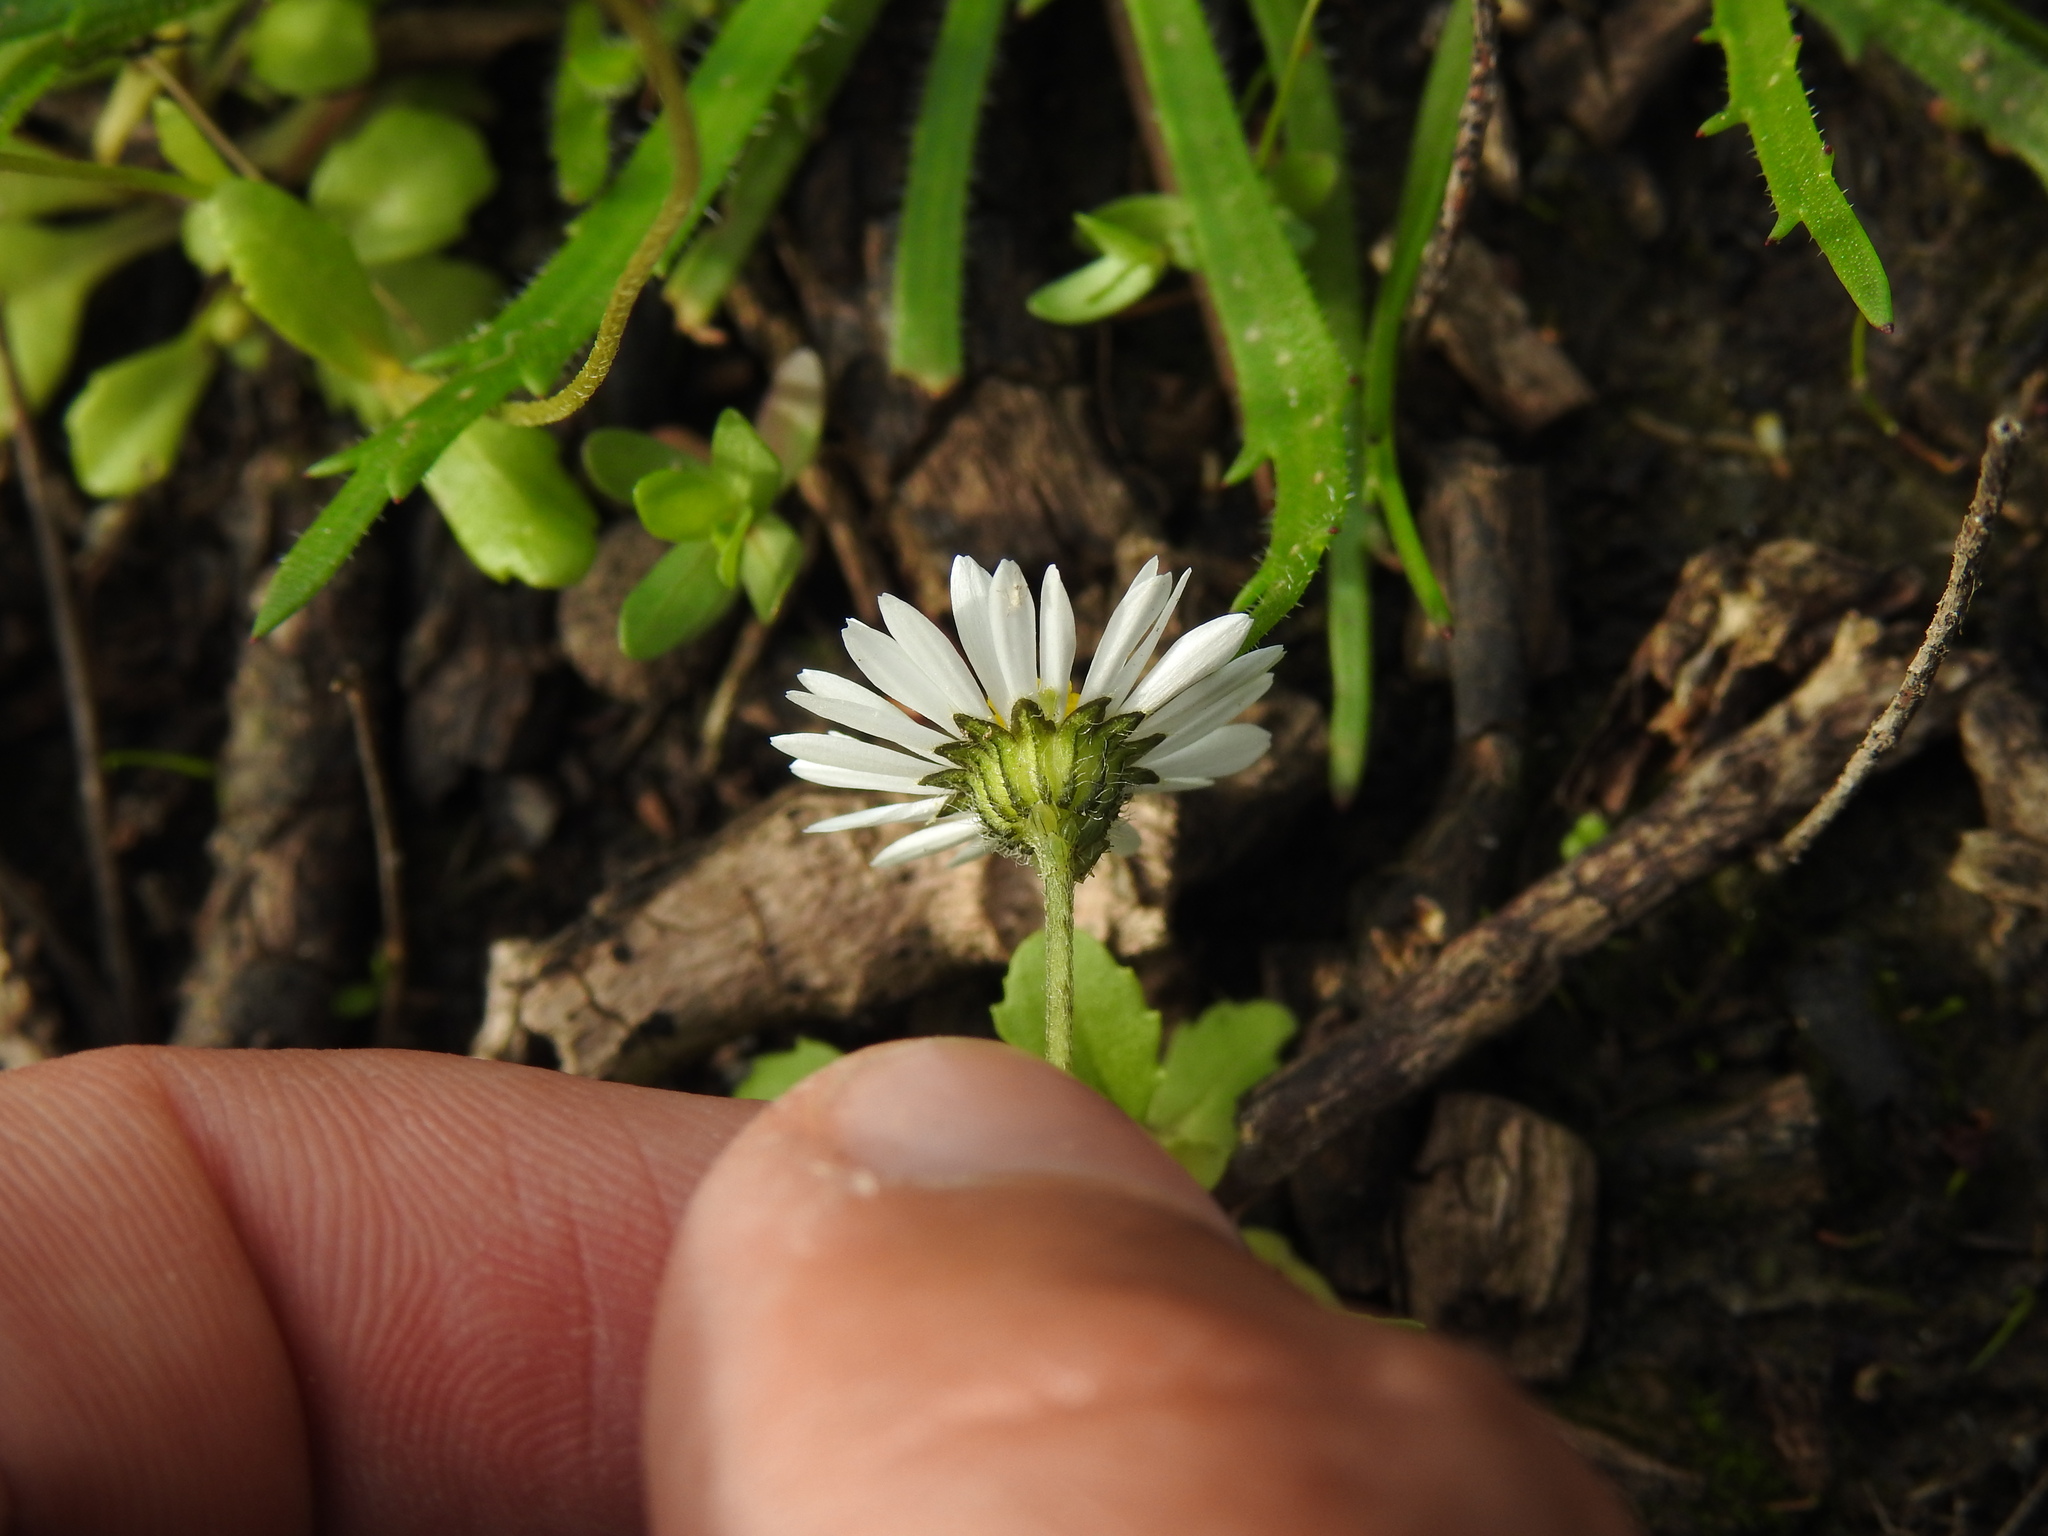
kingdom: Plantae
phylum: Tracheophyta
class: Magnoliopsida
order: Asterales
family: Asteraceae
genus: Bellis
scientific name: Bellis annua
